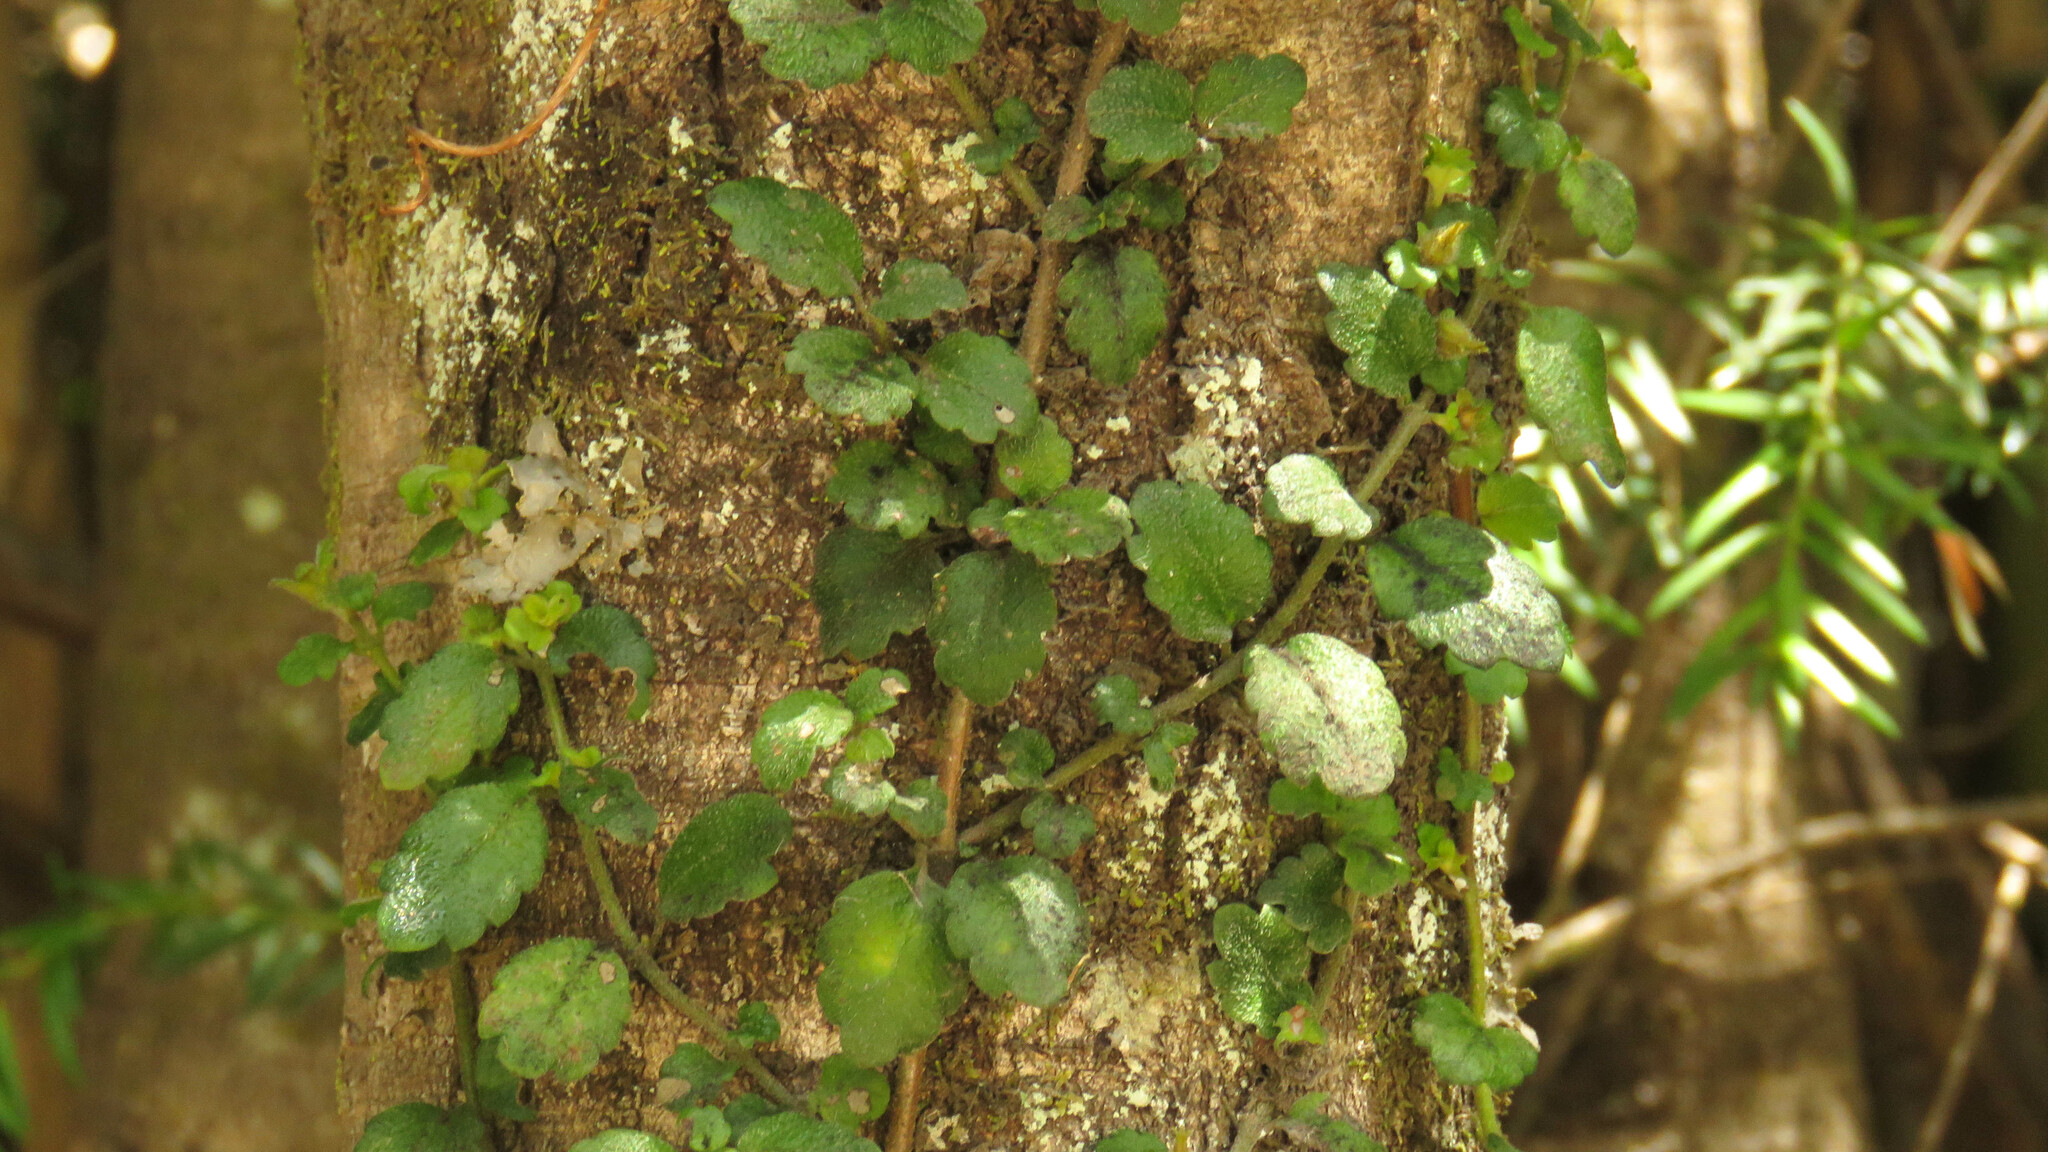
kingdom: Plantae
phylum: Tracheophyta
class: Magnoliopsida
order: Lamiales
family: Gesneriaceae
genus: Asteranthera
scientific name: Asteranthera ovata
